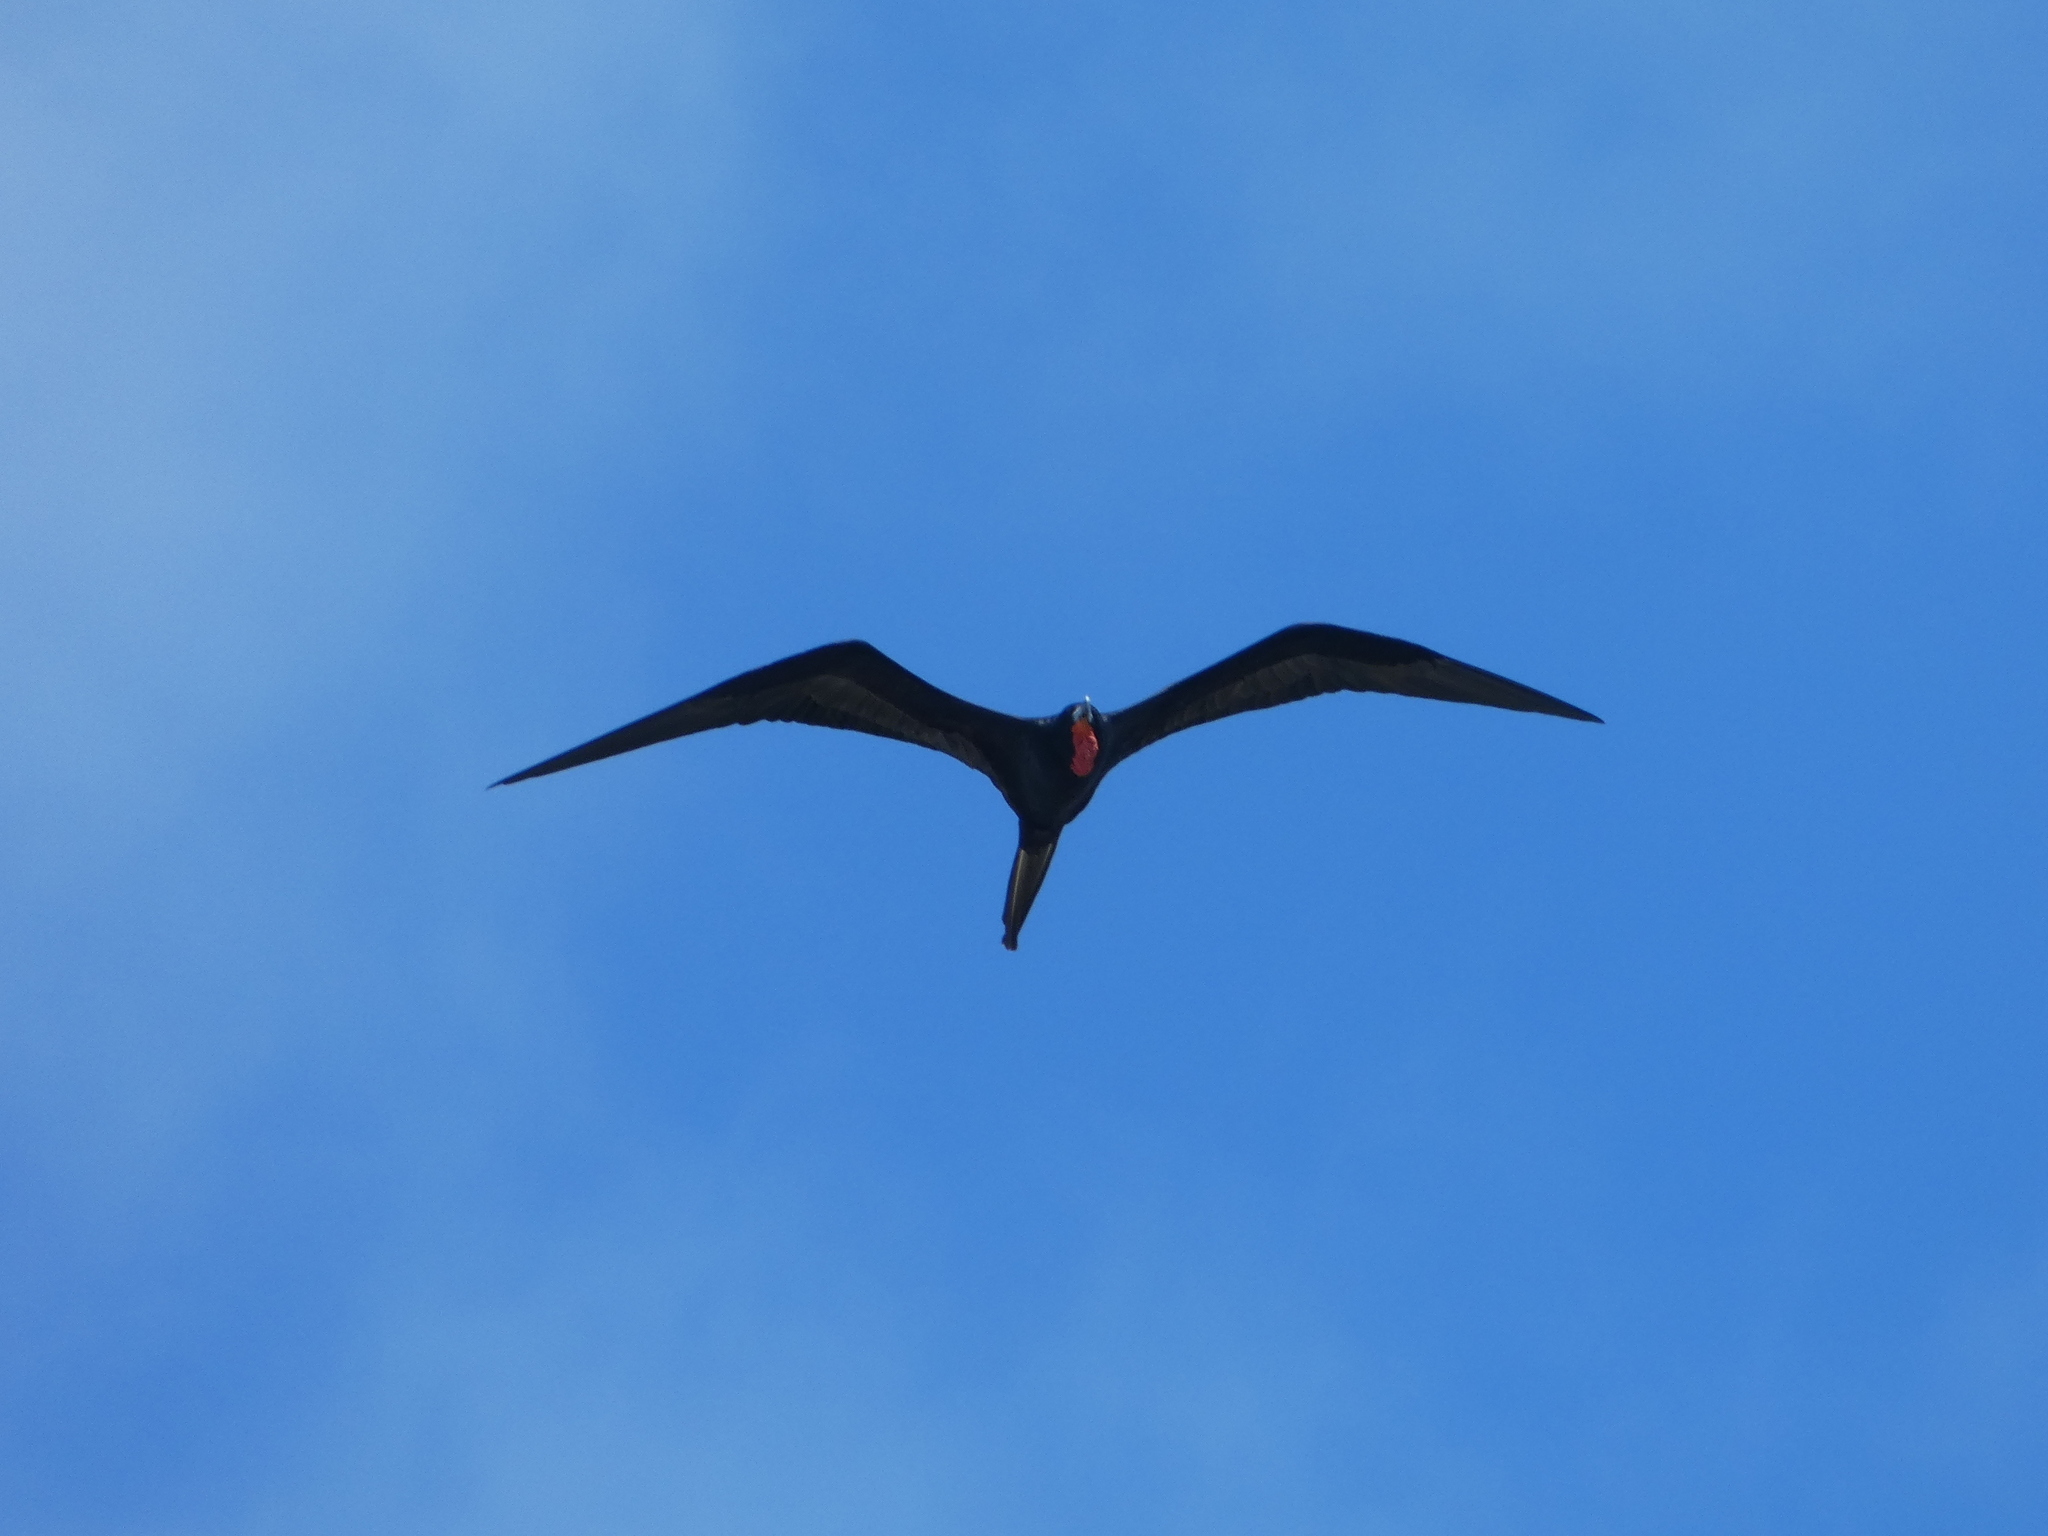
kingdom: Animalia
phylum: Chordata
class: Aves
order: Suliformes
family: Fregatidae
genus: Fregata
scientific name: Fregata magnificens
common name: Magnificent frigatebird
